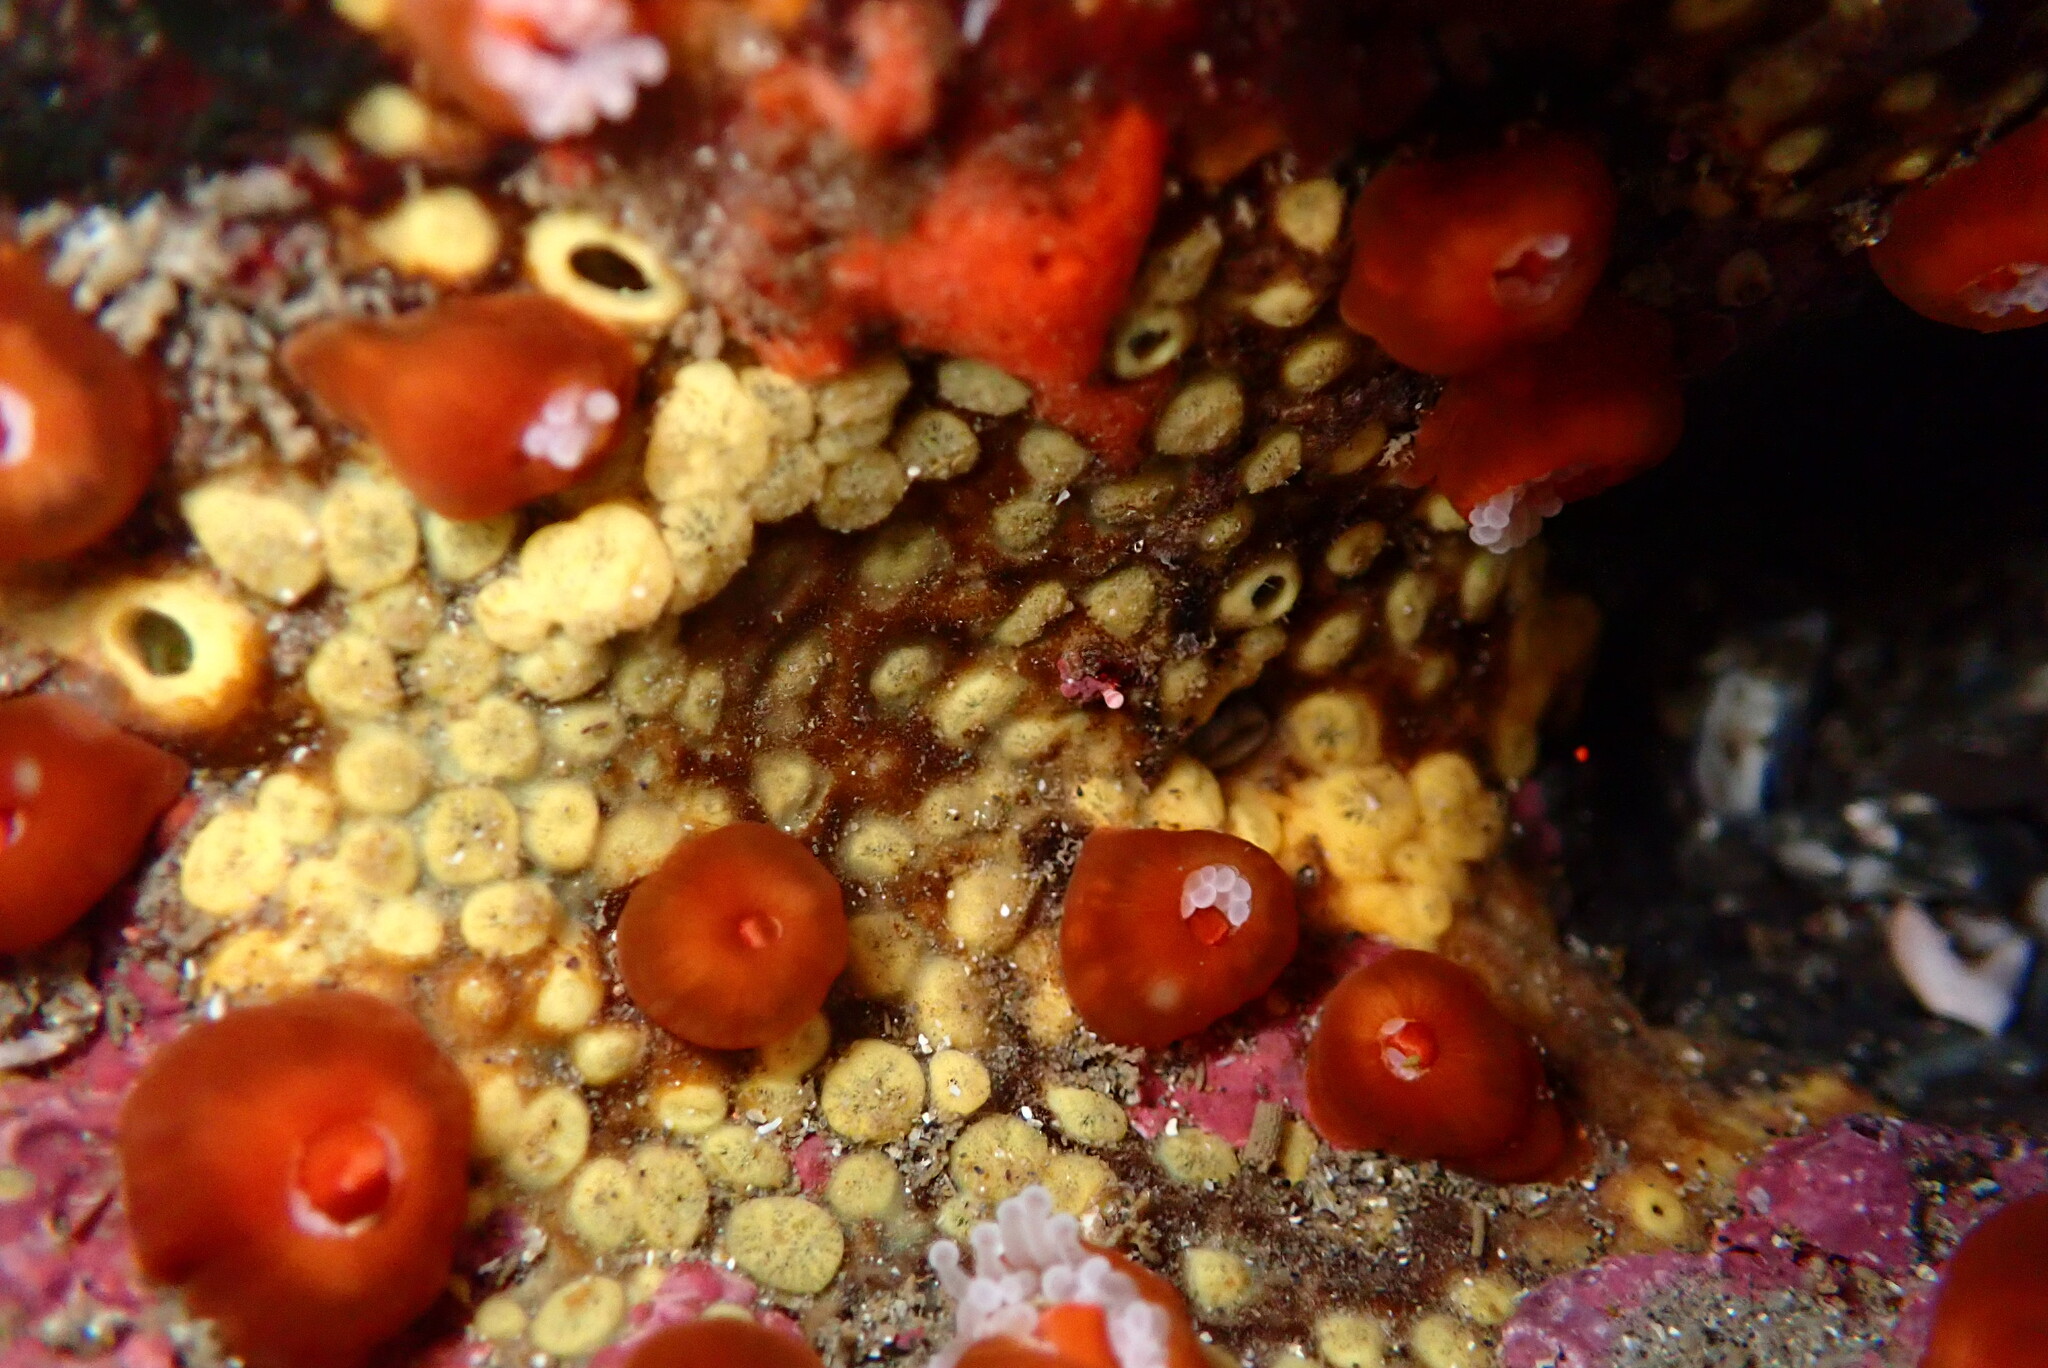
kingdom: Animalia
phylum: Porifera
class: Demospongiae
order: Clionaida
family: Clionaidae
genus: Cliona
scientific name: Cliona californiana
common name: California boring horny sponge
